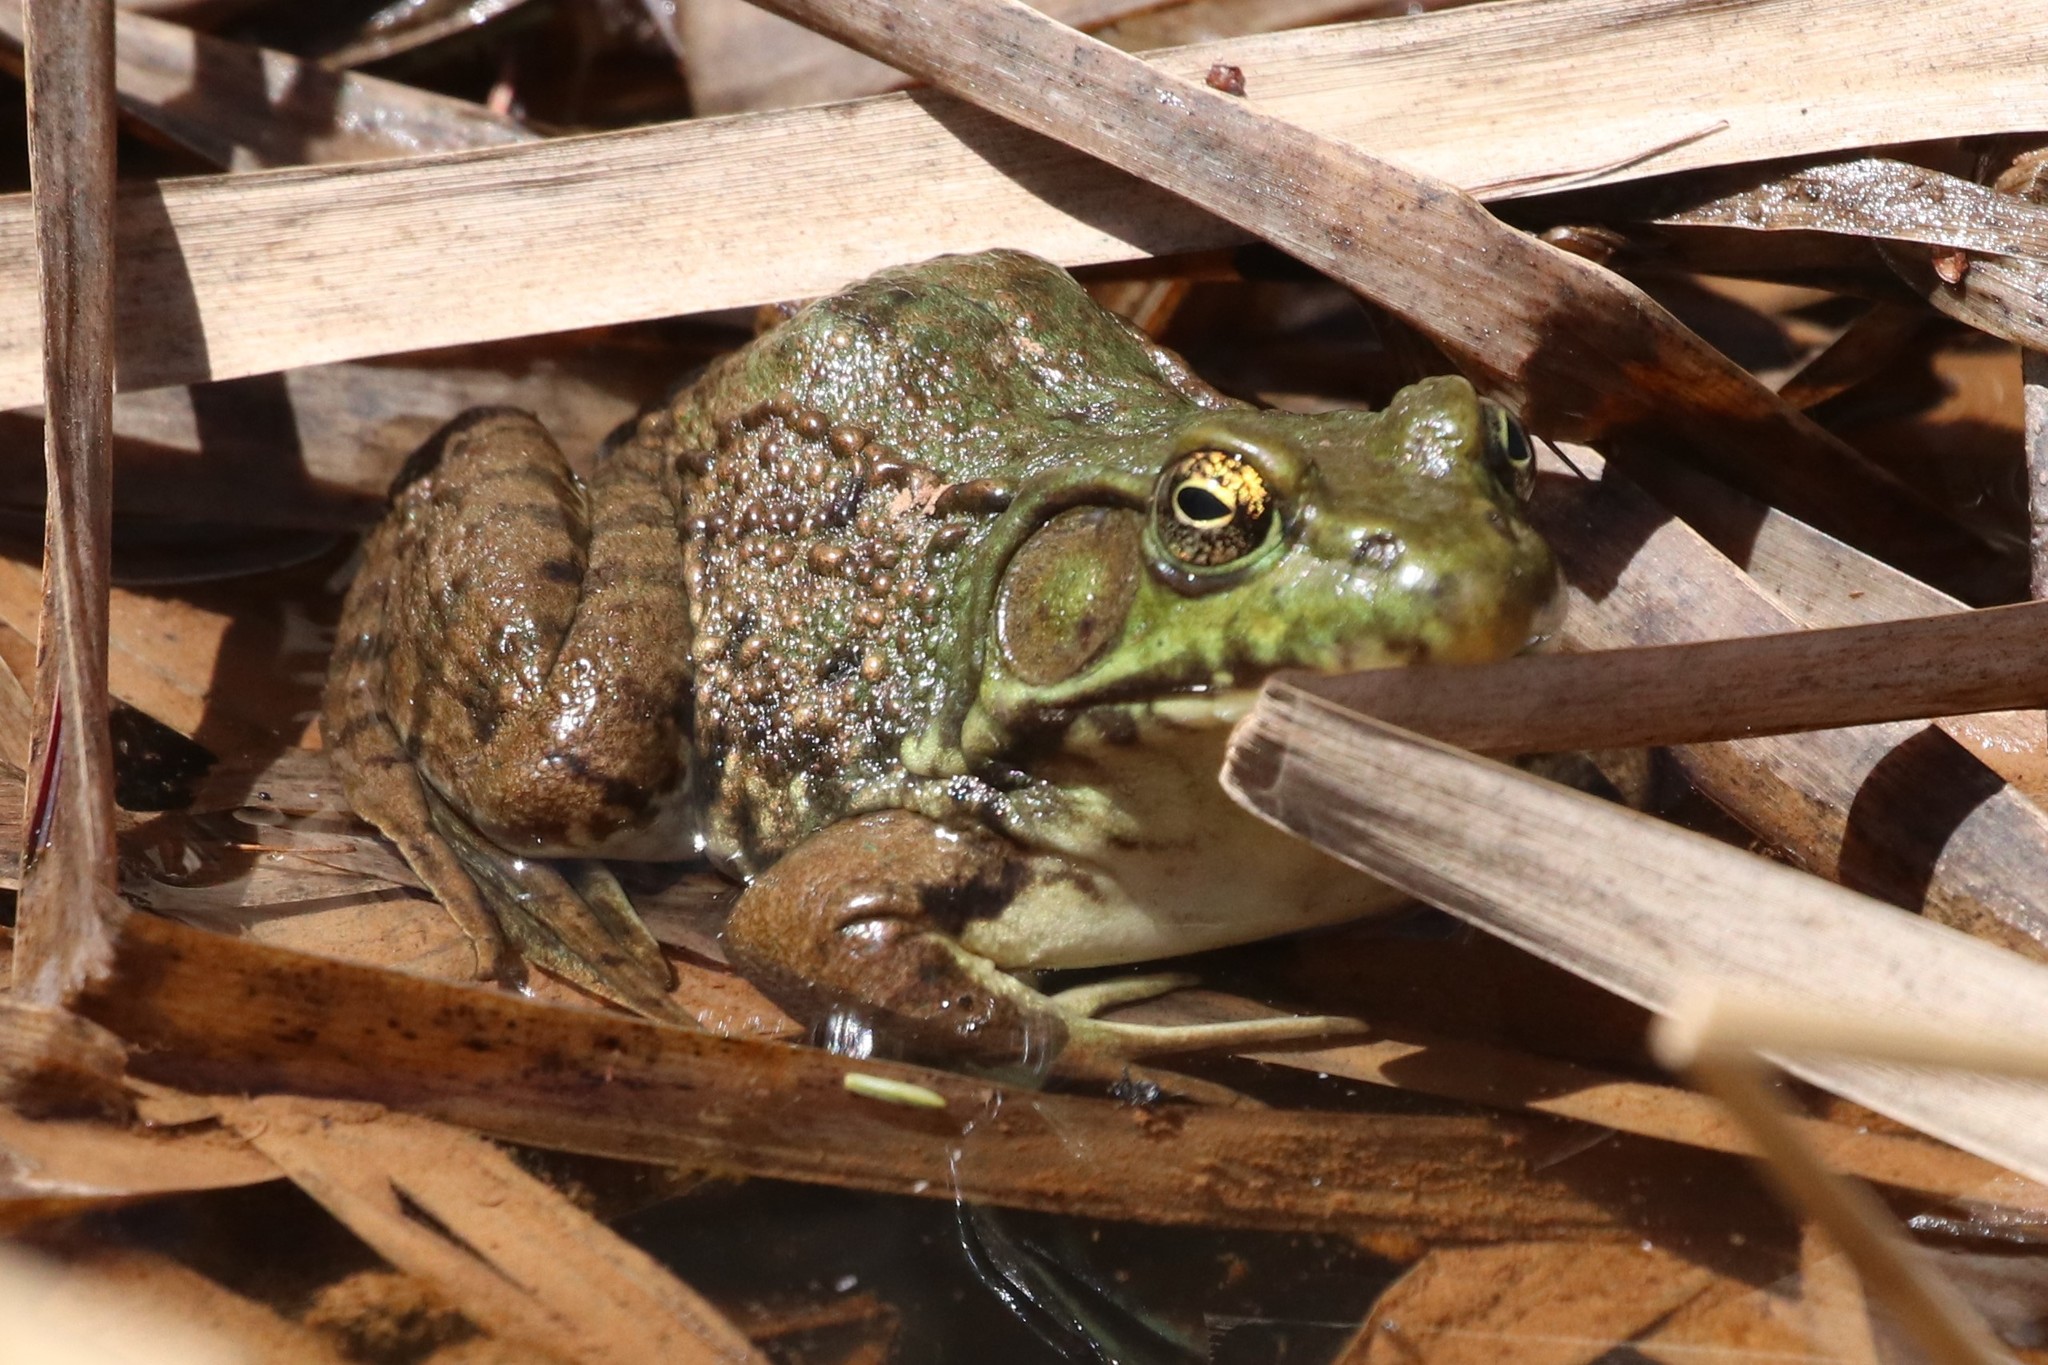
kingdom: Animalia
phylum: Chordata
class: Amphibia
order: Anura
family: Ranidae
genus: Lithobates
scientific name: Lithobates clamitans
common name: Green frog
